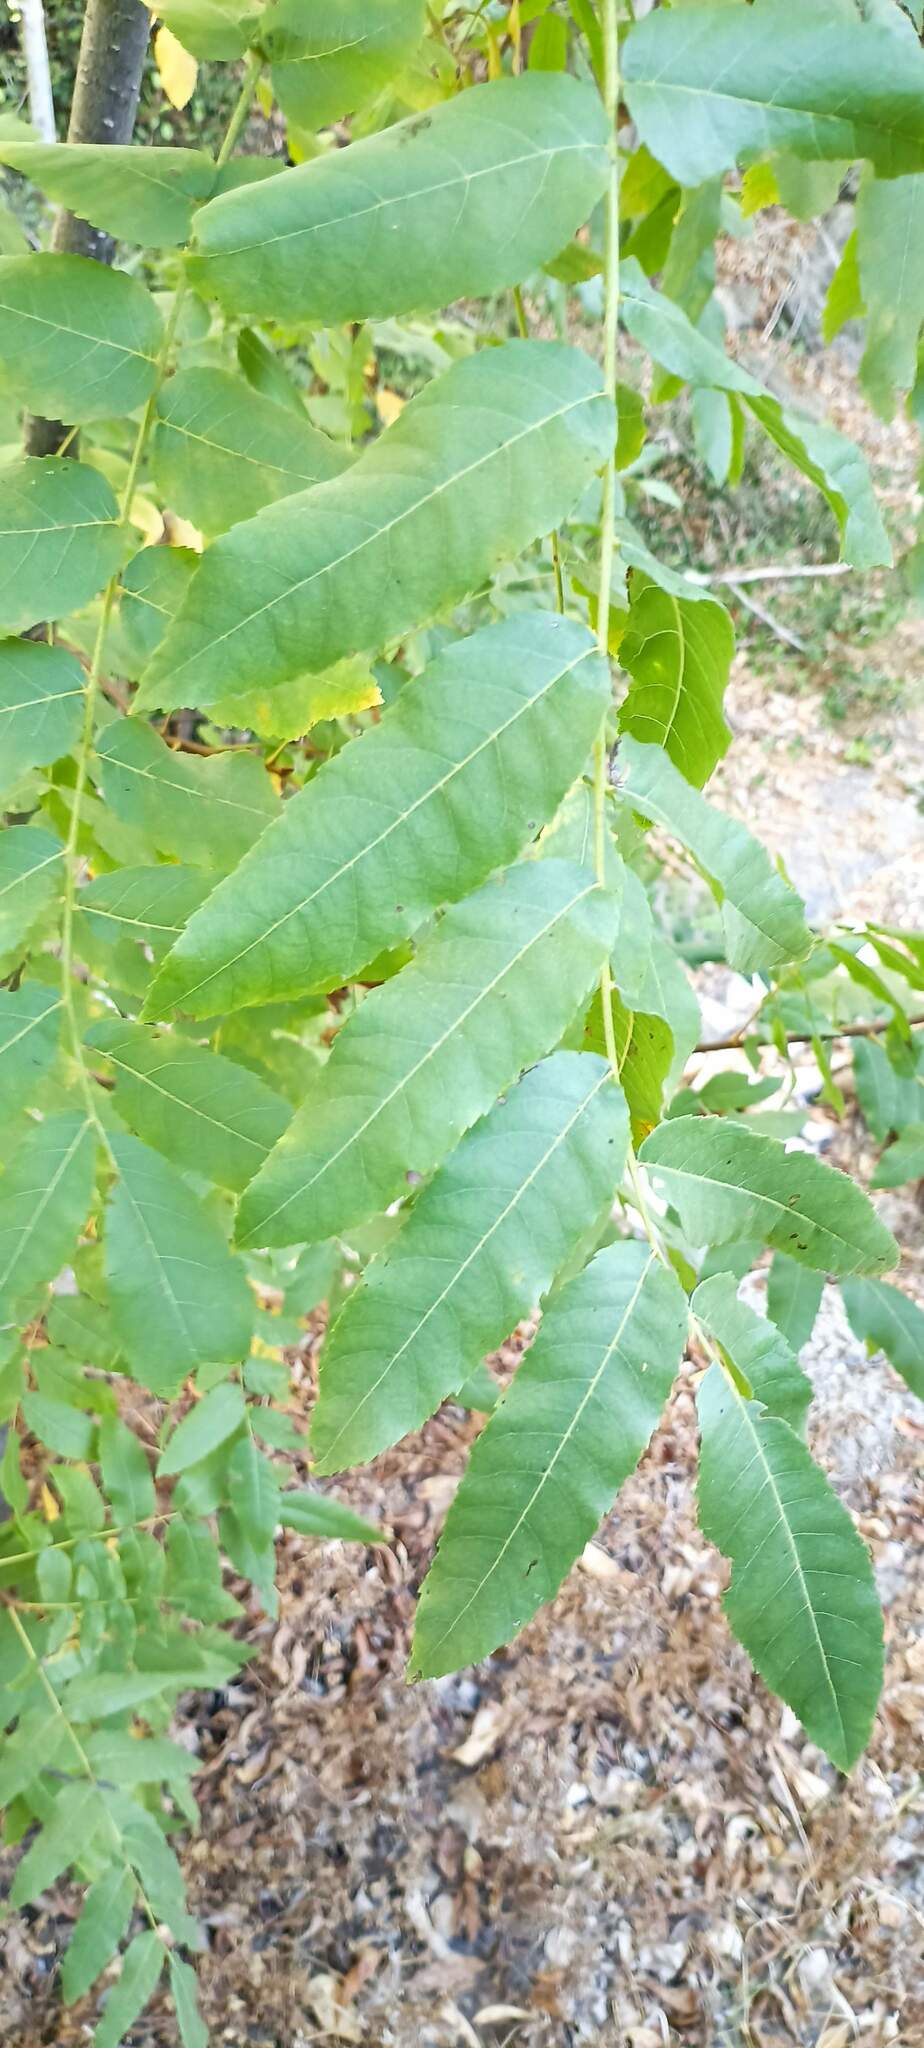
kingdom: Plantae
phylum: Tracheophyta
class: Magnoliopsida
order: Fagales
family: Juglandaceae
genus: Juglans
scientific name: Juglans californica
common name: Southern california black walnut
